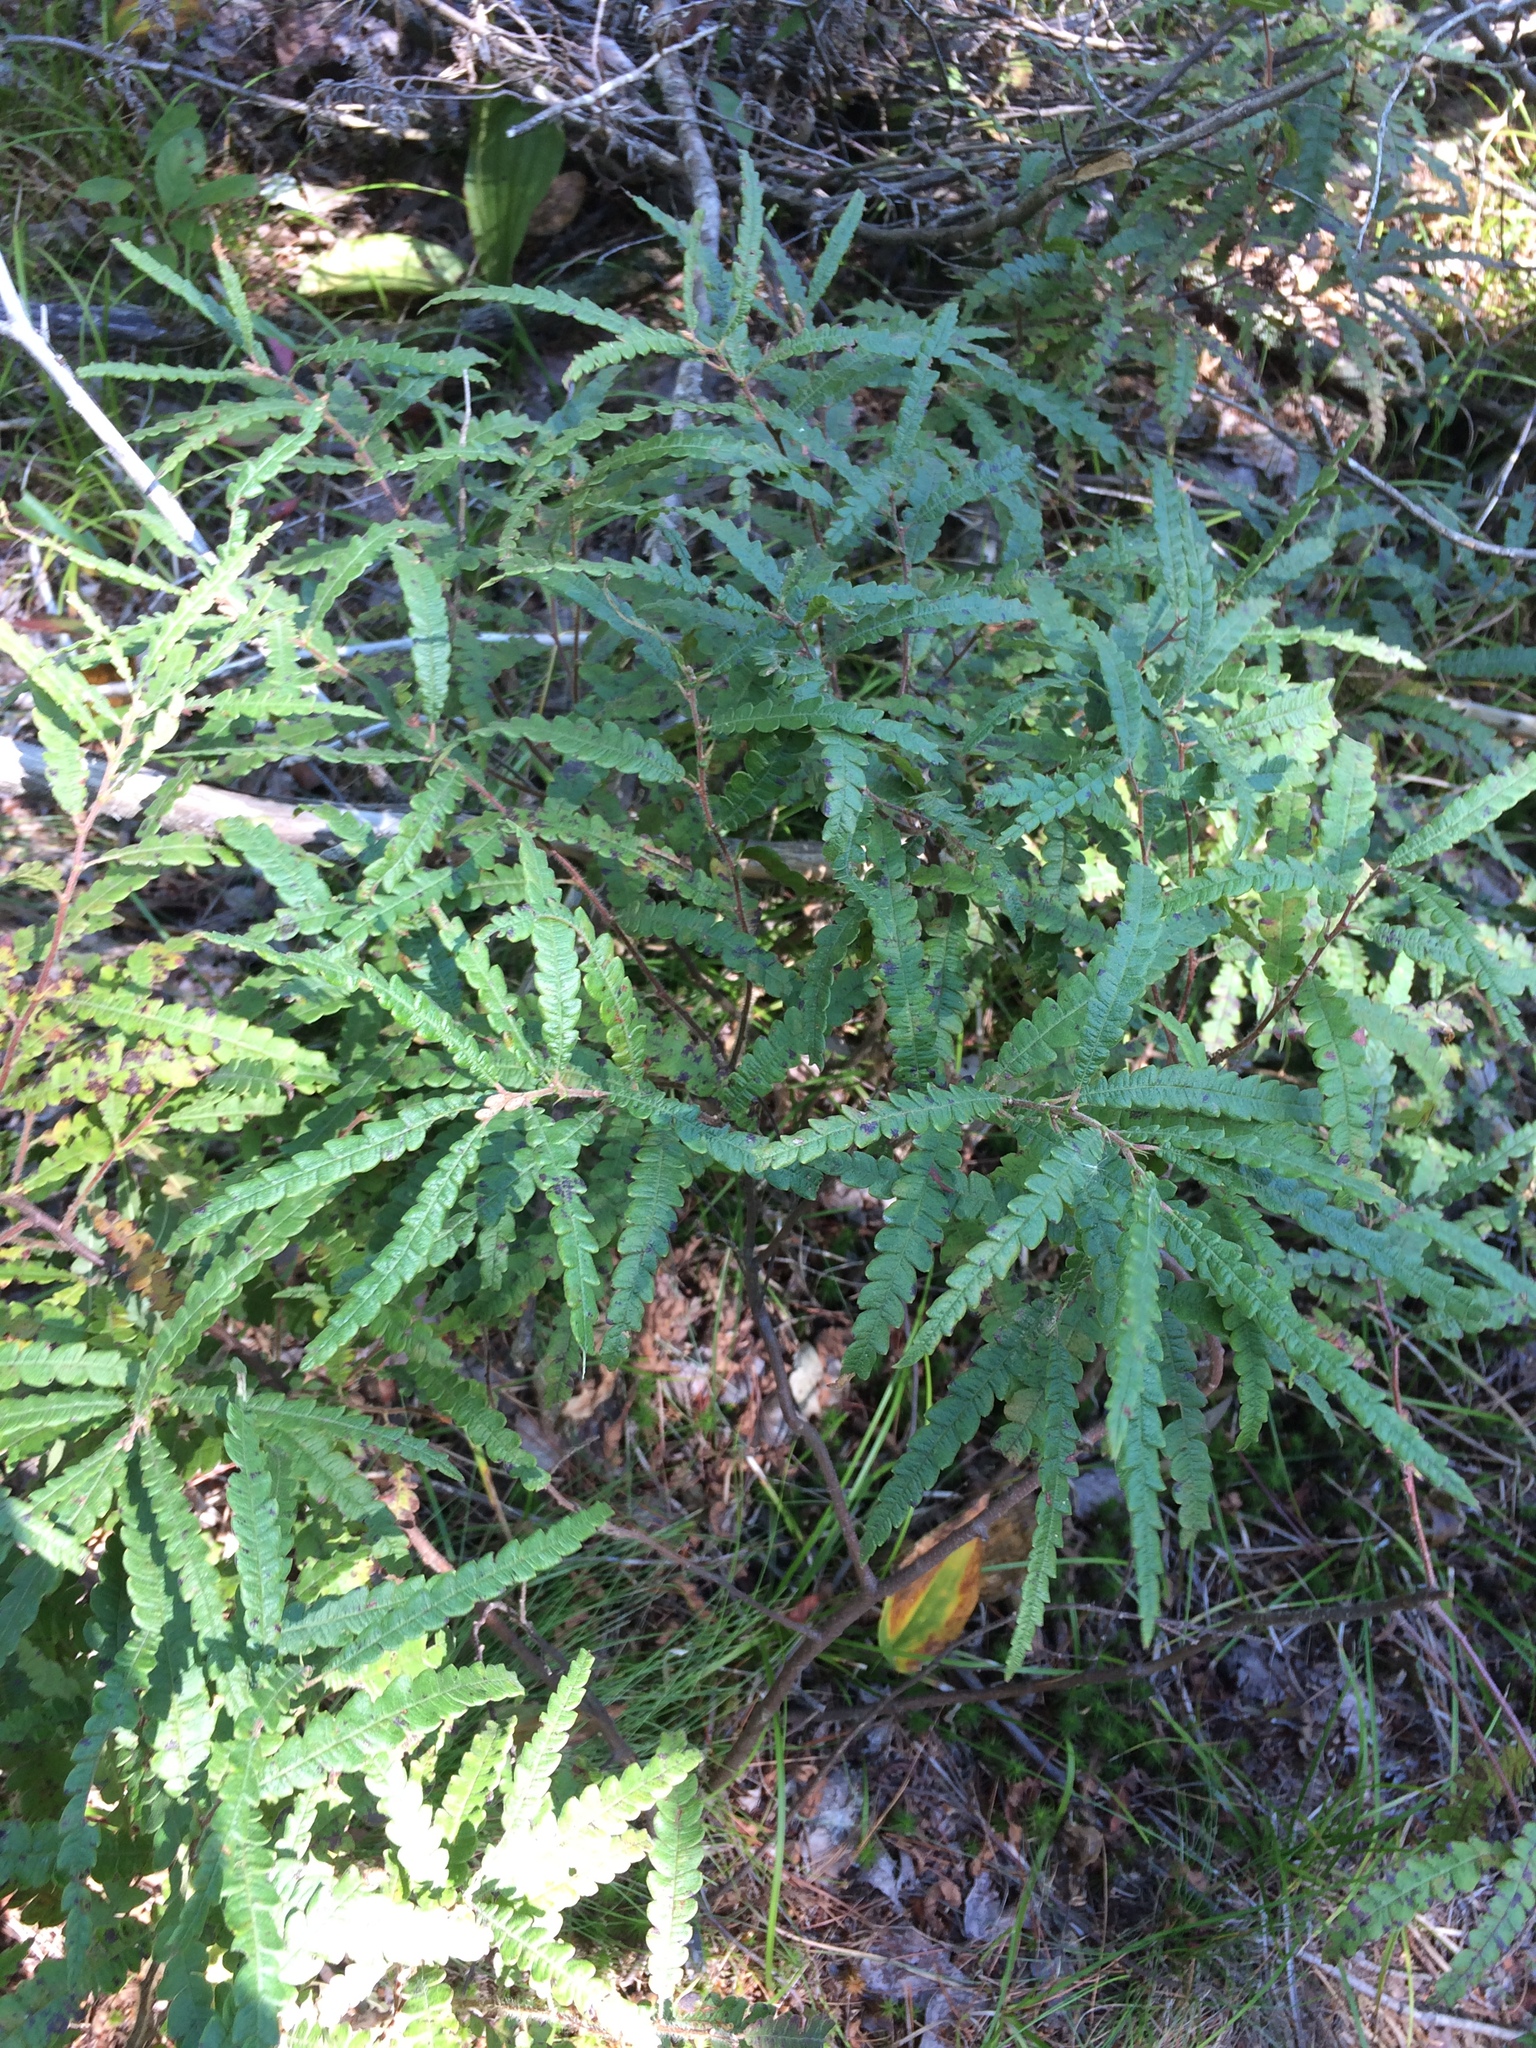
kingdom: Plantae
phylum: Tracheophyta
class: Magnoliopsida
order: Fagales
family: Myricaceae
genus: Comptonia
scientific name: Comptonia peregrina
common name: Sweet-fern
